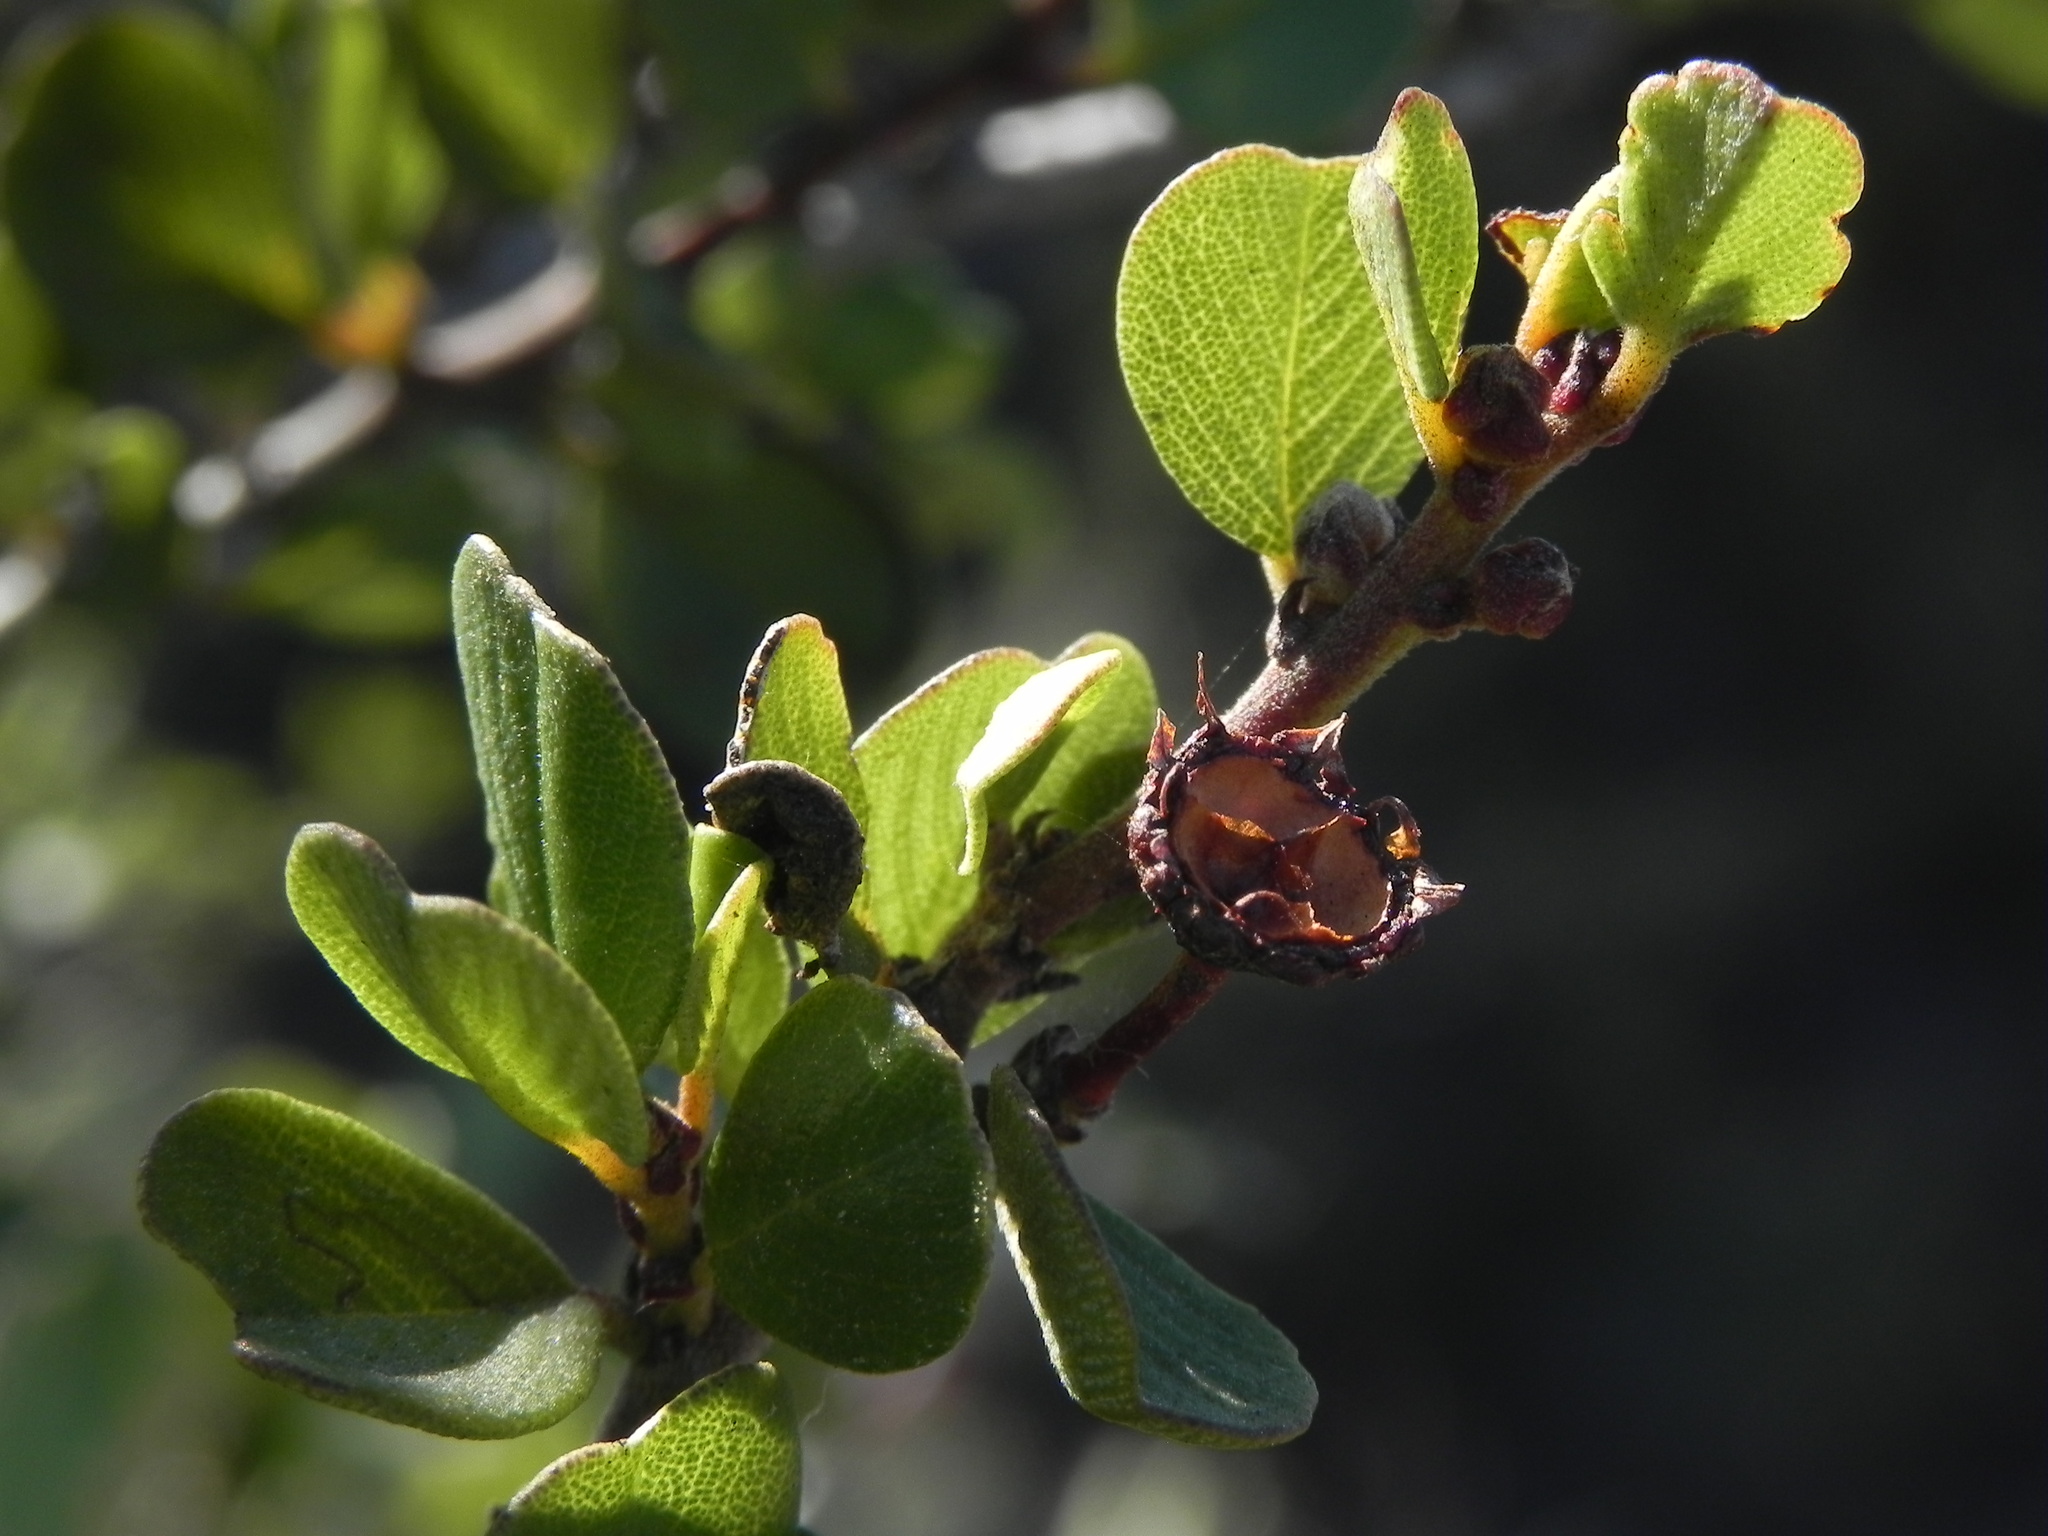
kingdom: Plantae
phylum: Tracheophyta
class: Magnoliopsida
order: Rosales
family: Rhamnaceae
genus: Ceanothus
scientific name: Ceanothus verrucosus
